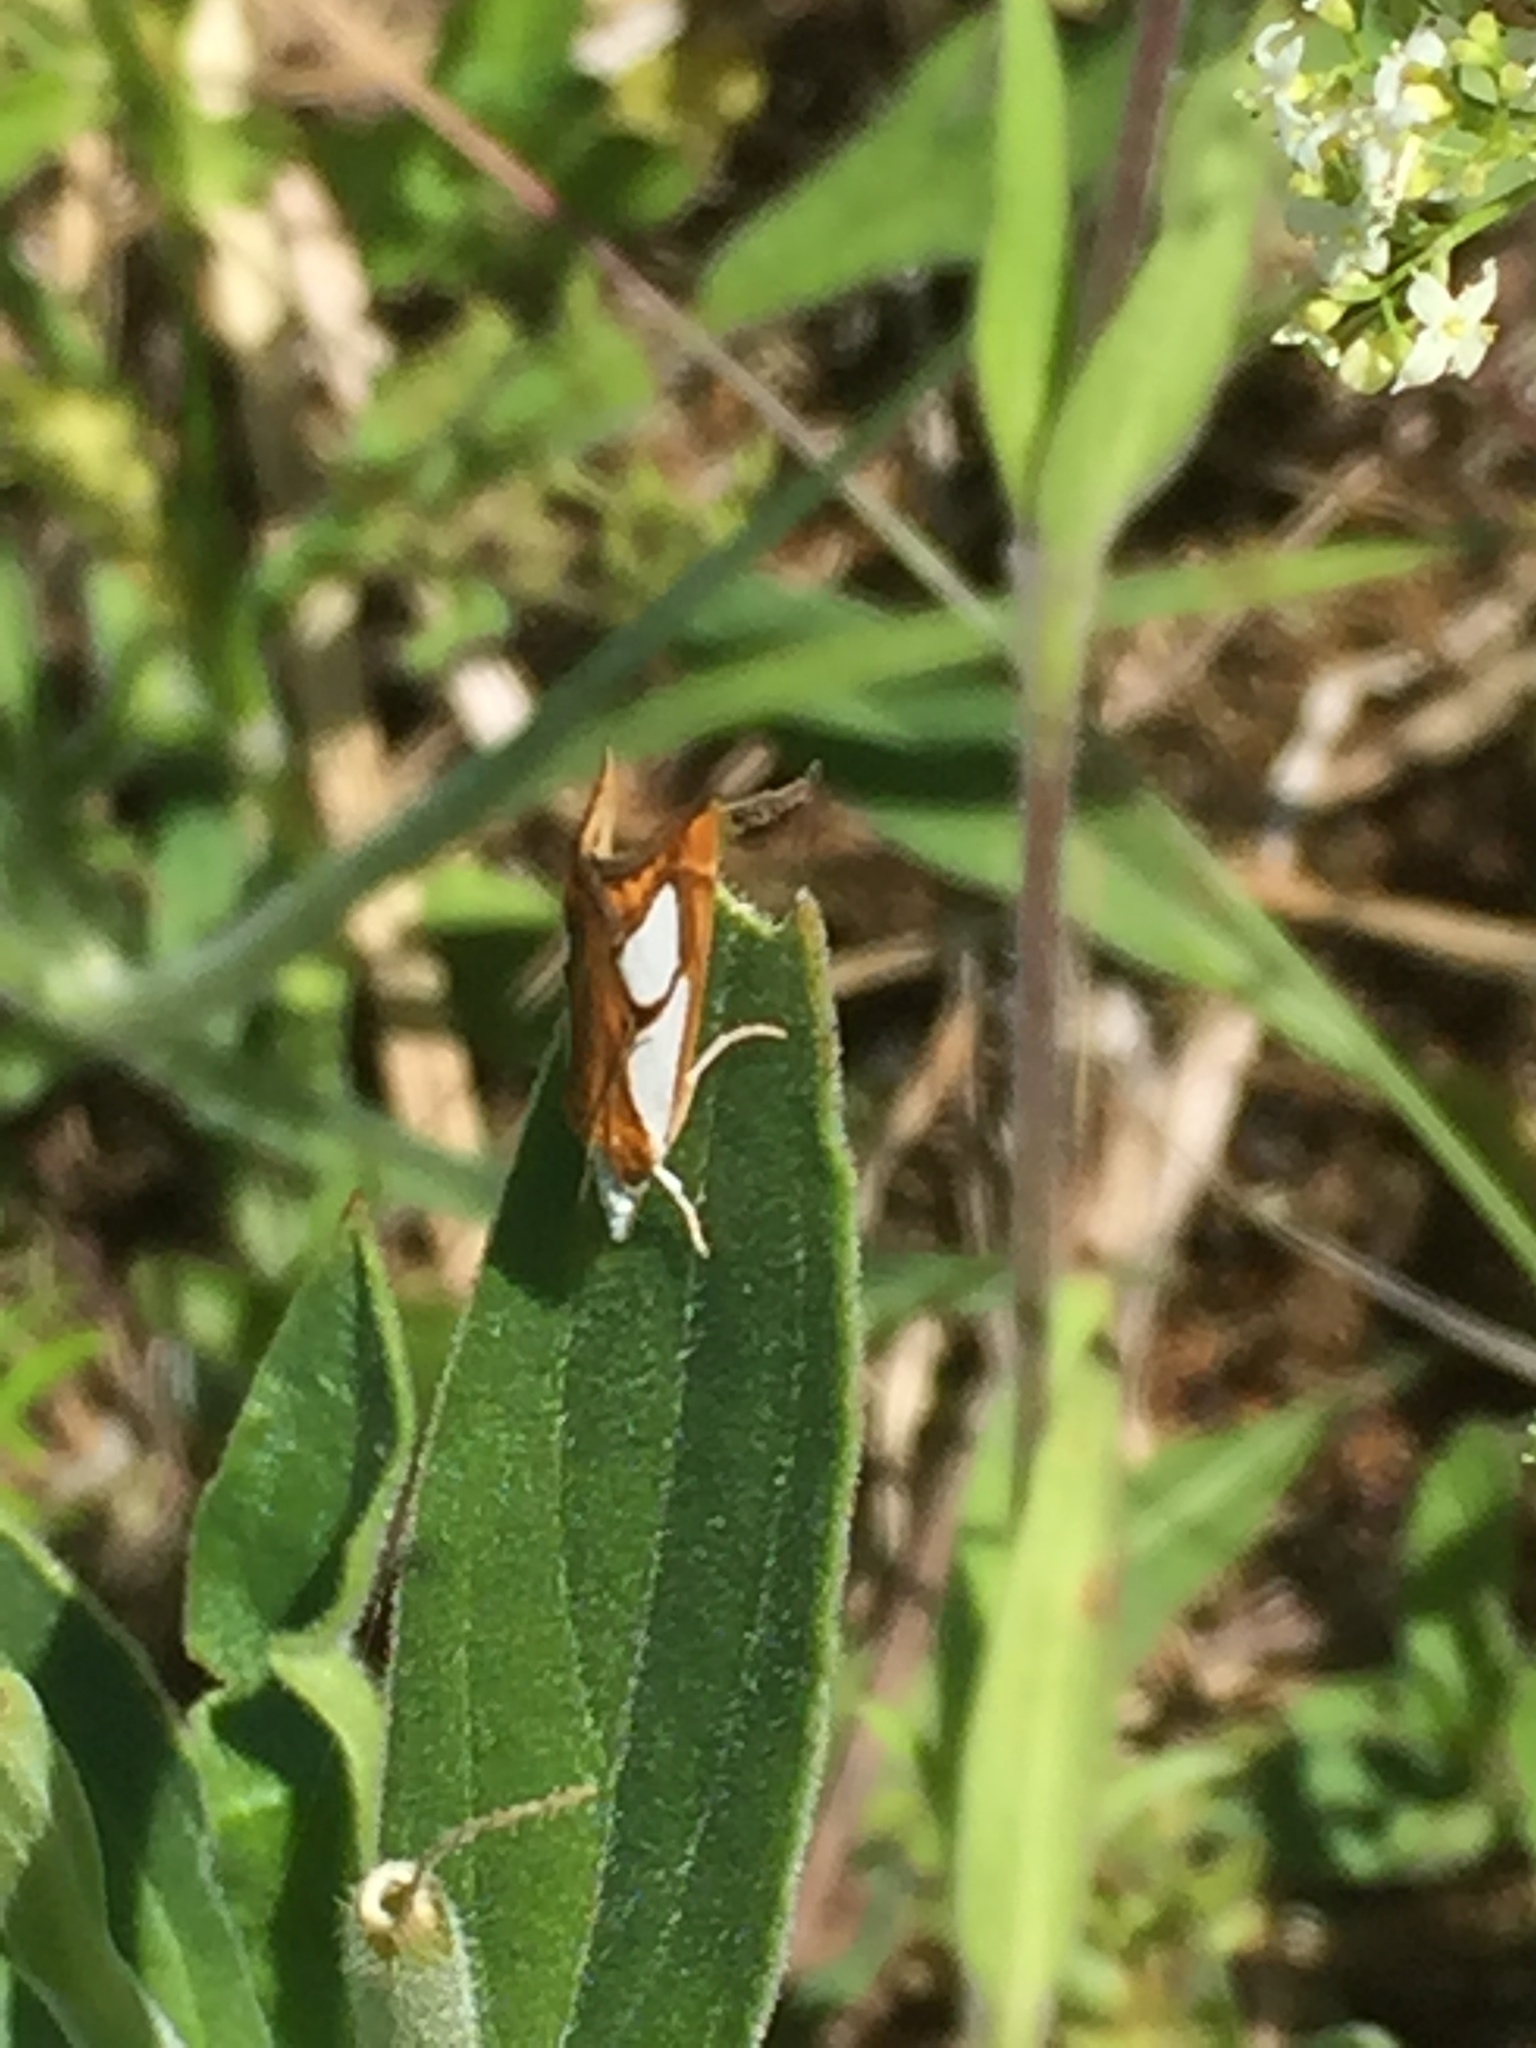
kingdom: Animalia
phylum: Arthropoda
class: Insecta
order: Lepidoptera
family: Crambidae
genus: Catoptria
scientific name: Catoptria pinella
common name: Pearl grass-veneer
